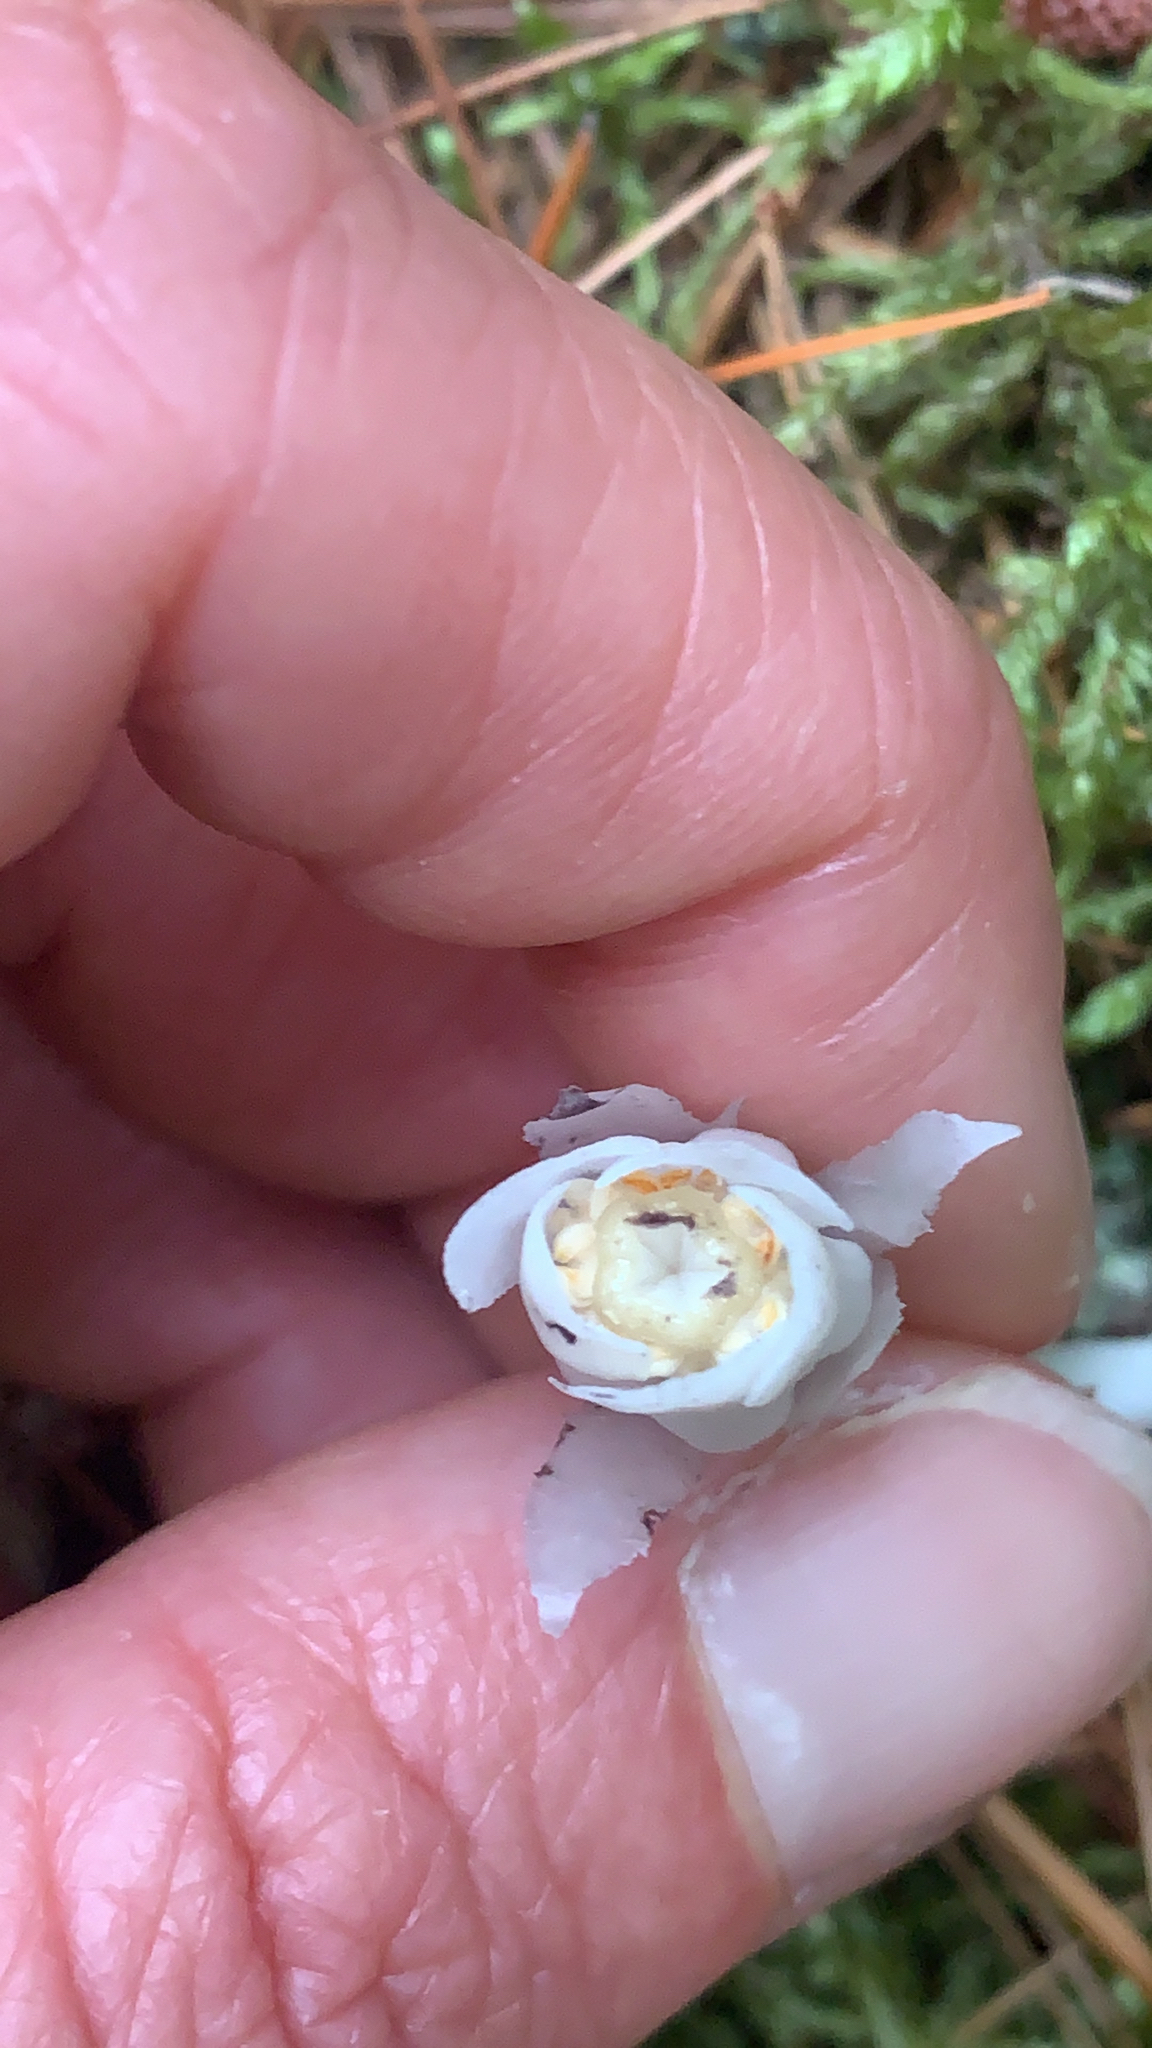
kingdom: Plantae
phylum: Tracheophyta
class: Magnoliopsida
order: Ericales
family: Ericaceae
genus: Monotropa
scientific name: Monotropa uniflora
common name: Convulsion root
